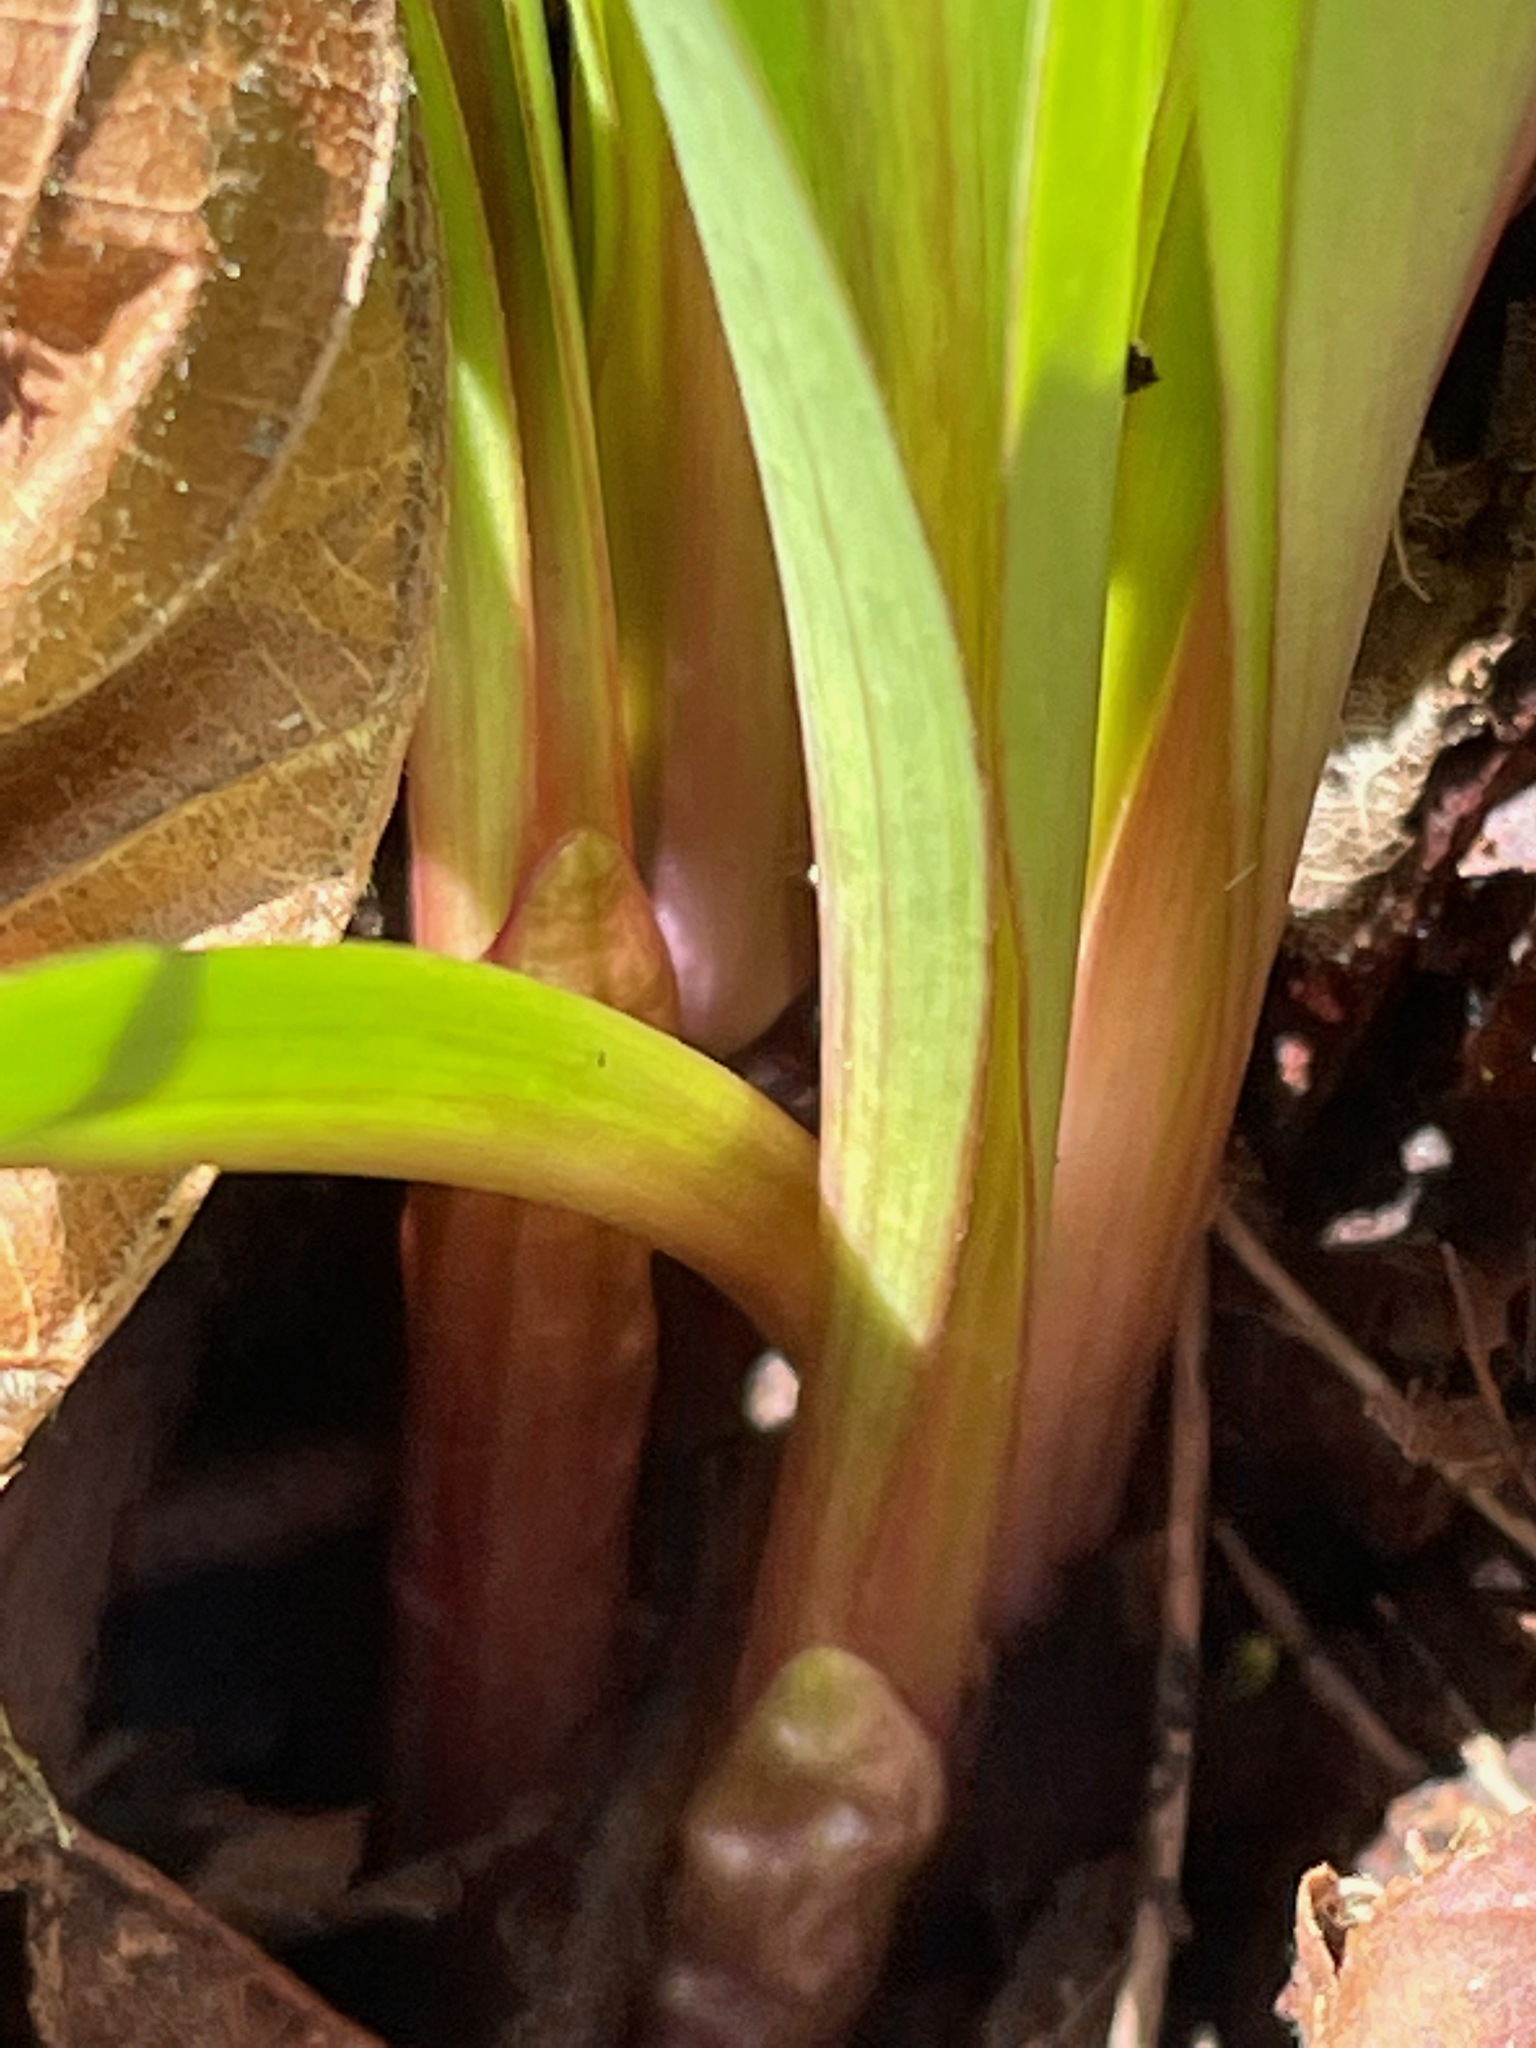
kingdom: Plantae
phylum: Tracheophyta
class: Liliopsida
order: Asparagales
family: Amaryllidaceae
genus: Allium
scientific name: Allium tricoccum
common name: Ramp
